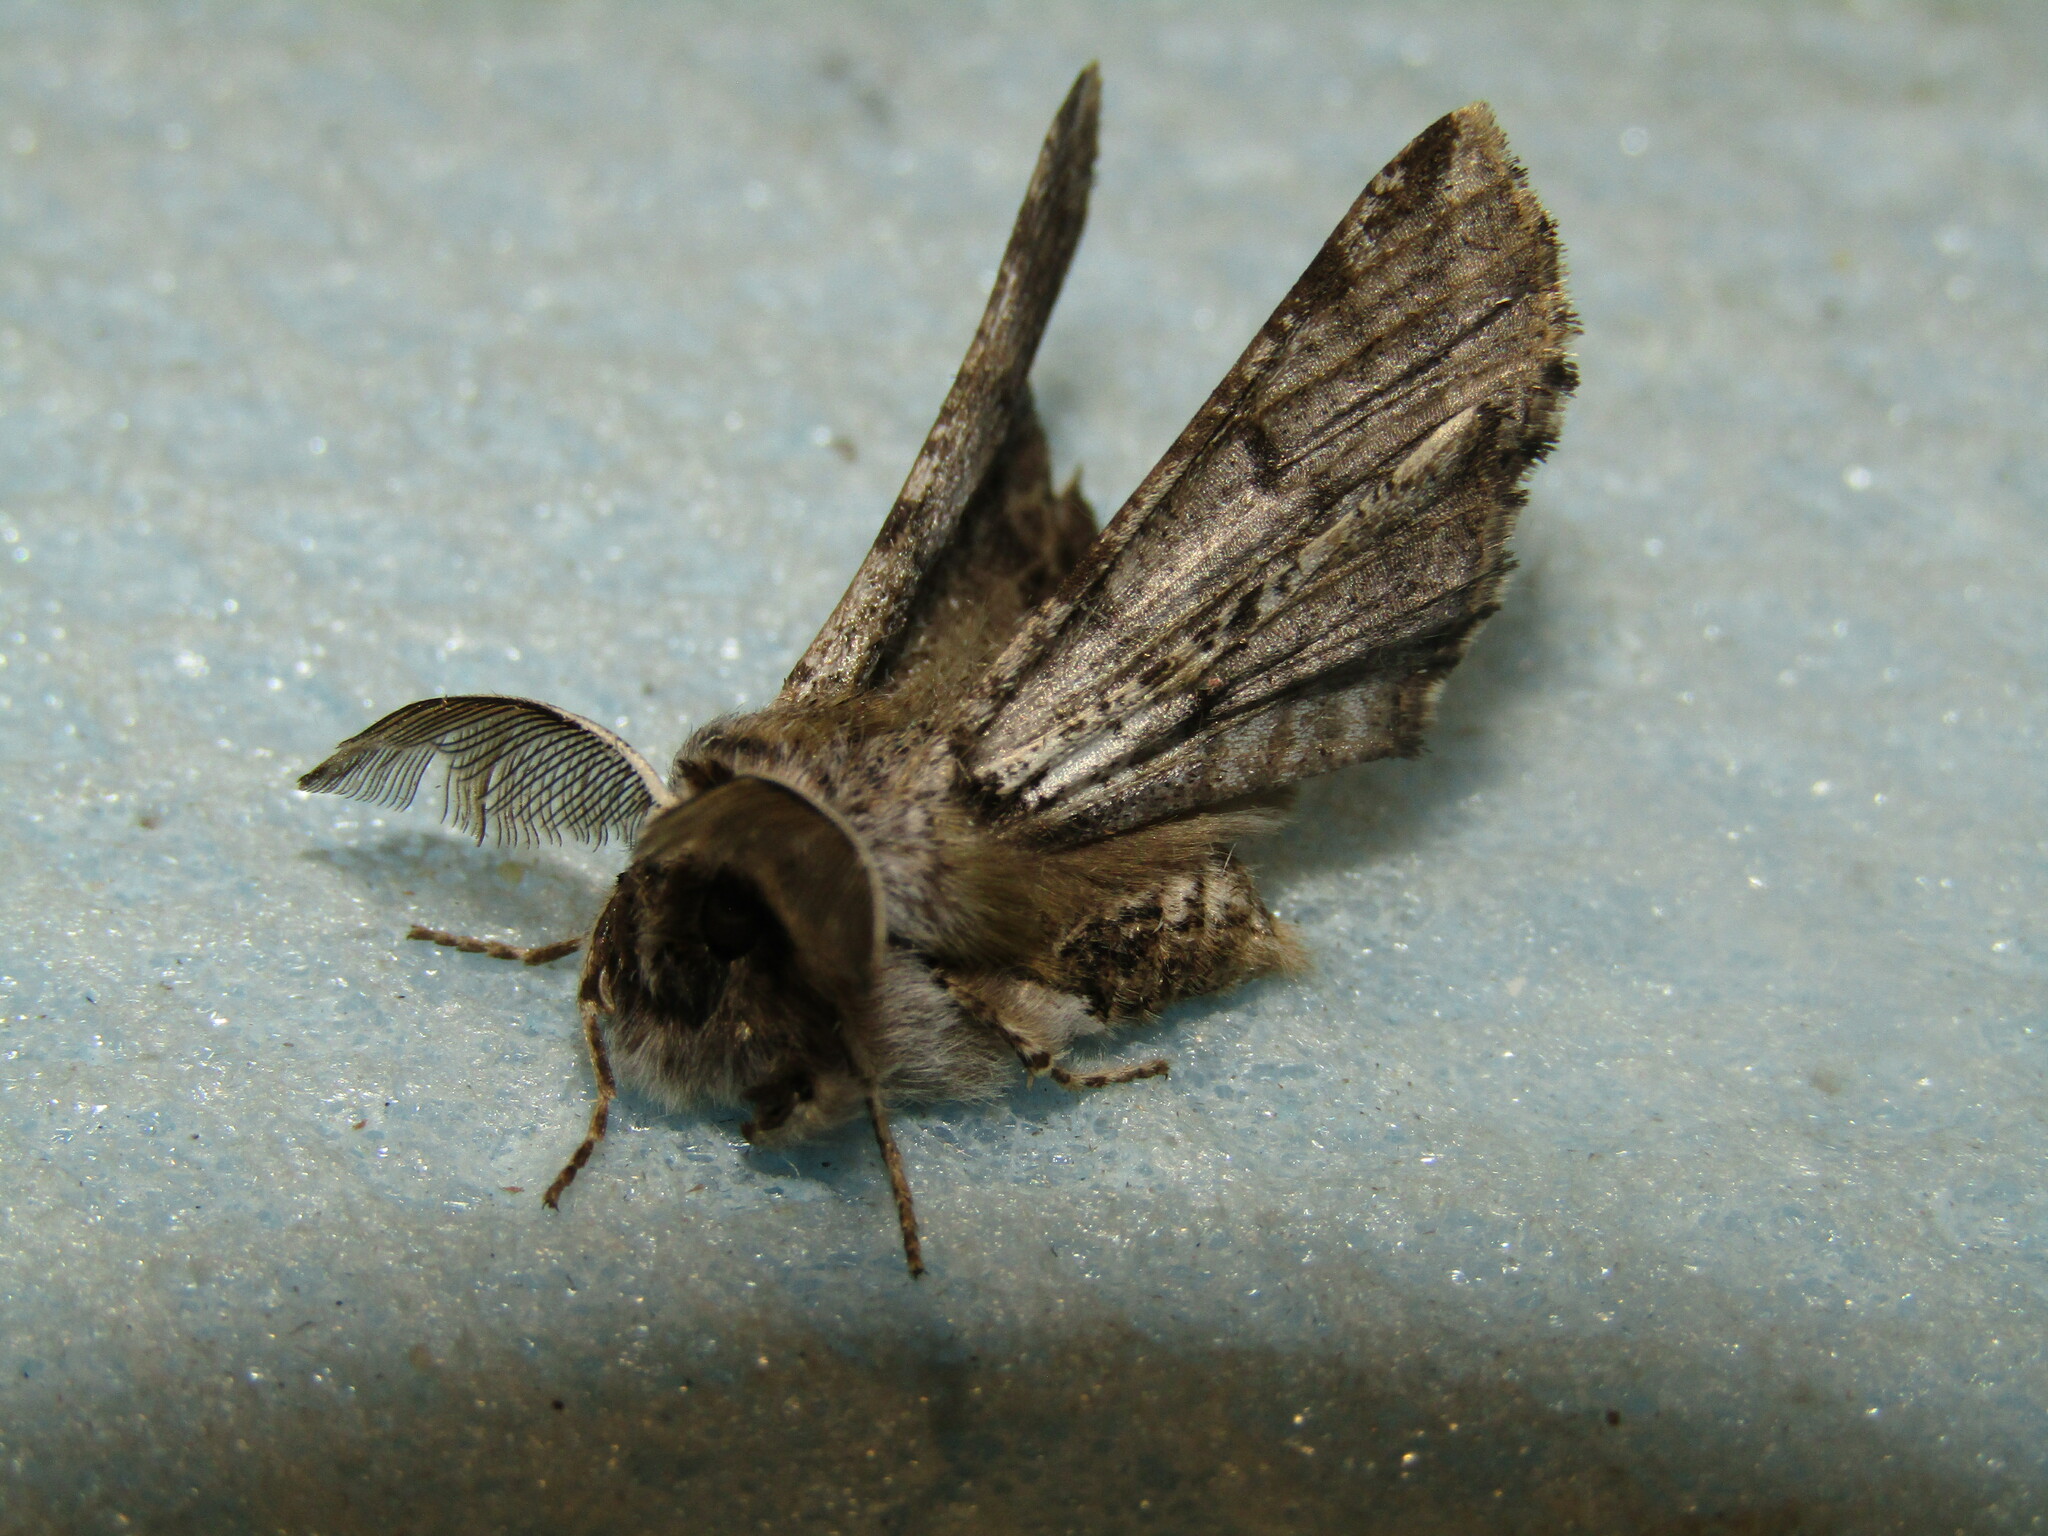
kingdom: Animalia
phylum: Arthropoda
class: Insecta
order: Lepidoptera
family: Geometridae
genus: Apochima
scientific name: Apochima flabellaria
